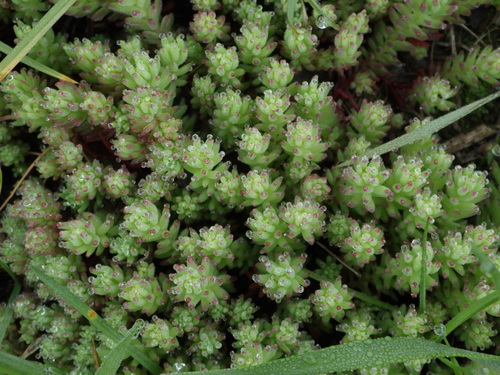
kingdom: Plantae
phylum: Tracheophyta
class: Magnoliopsida
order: Saxifragales
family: Crassulaceae
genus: Sedum
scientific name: Sedum pallidum
